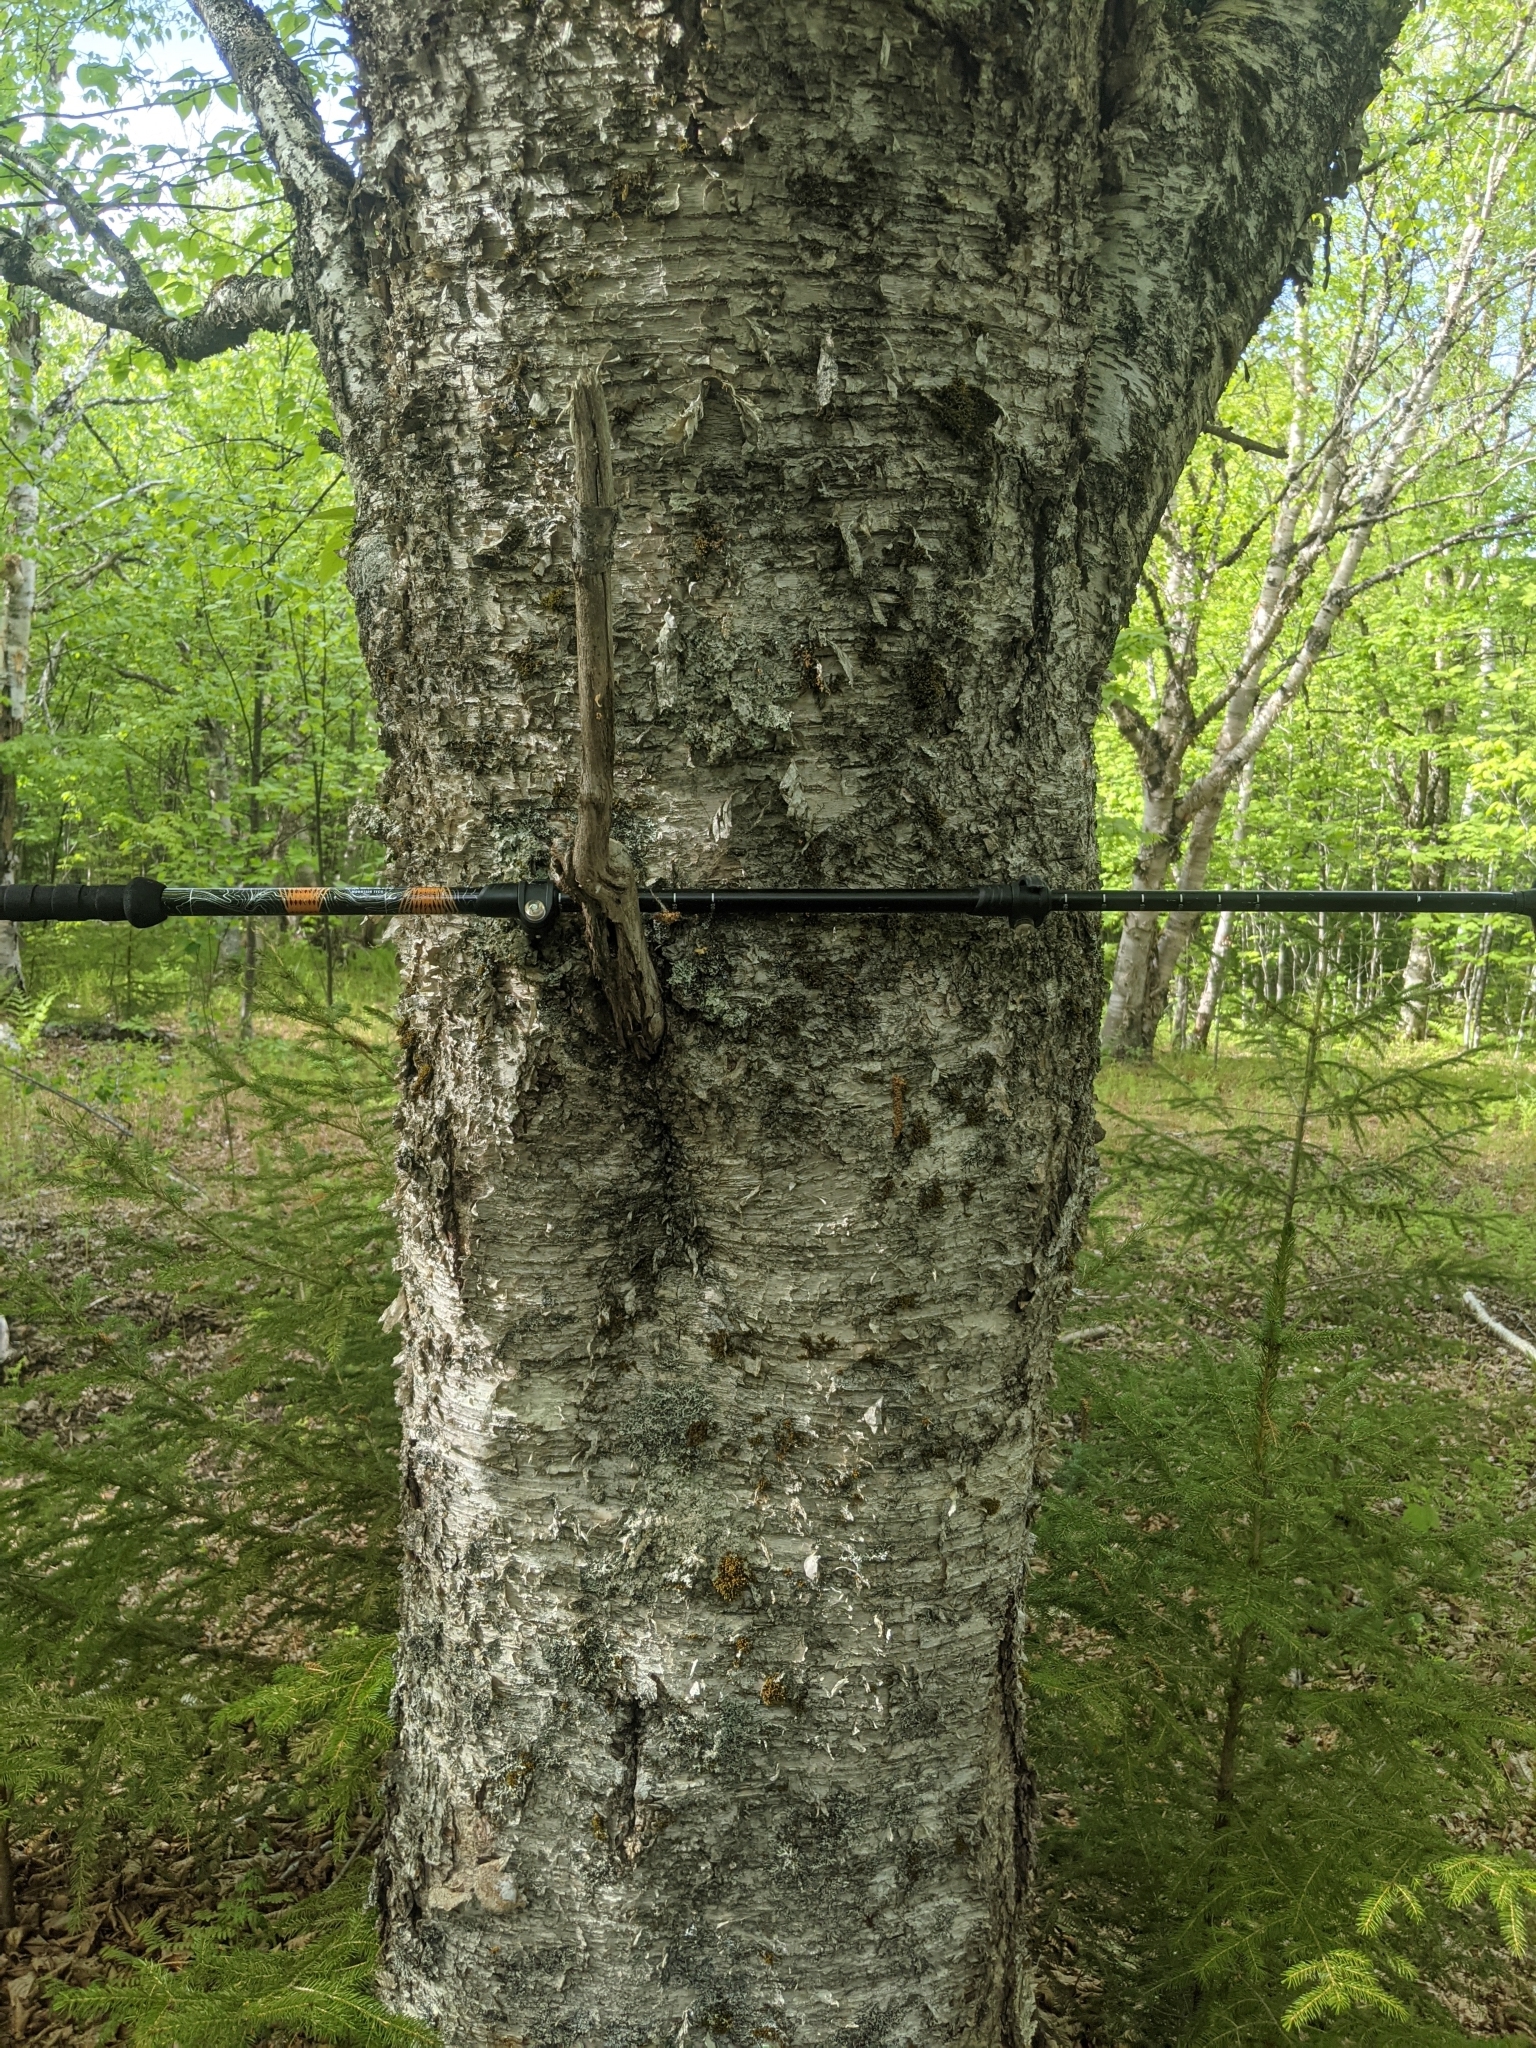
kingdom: Plantae
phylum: Tracheophyta
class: Magnoliopsida
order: Fagales
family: Betulaceae
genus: Betula
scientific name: Betula alleghaniensis
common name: Yellow birch
